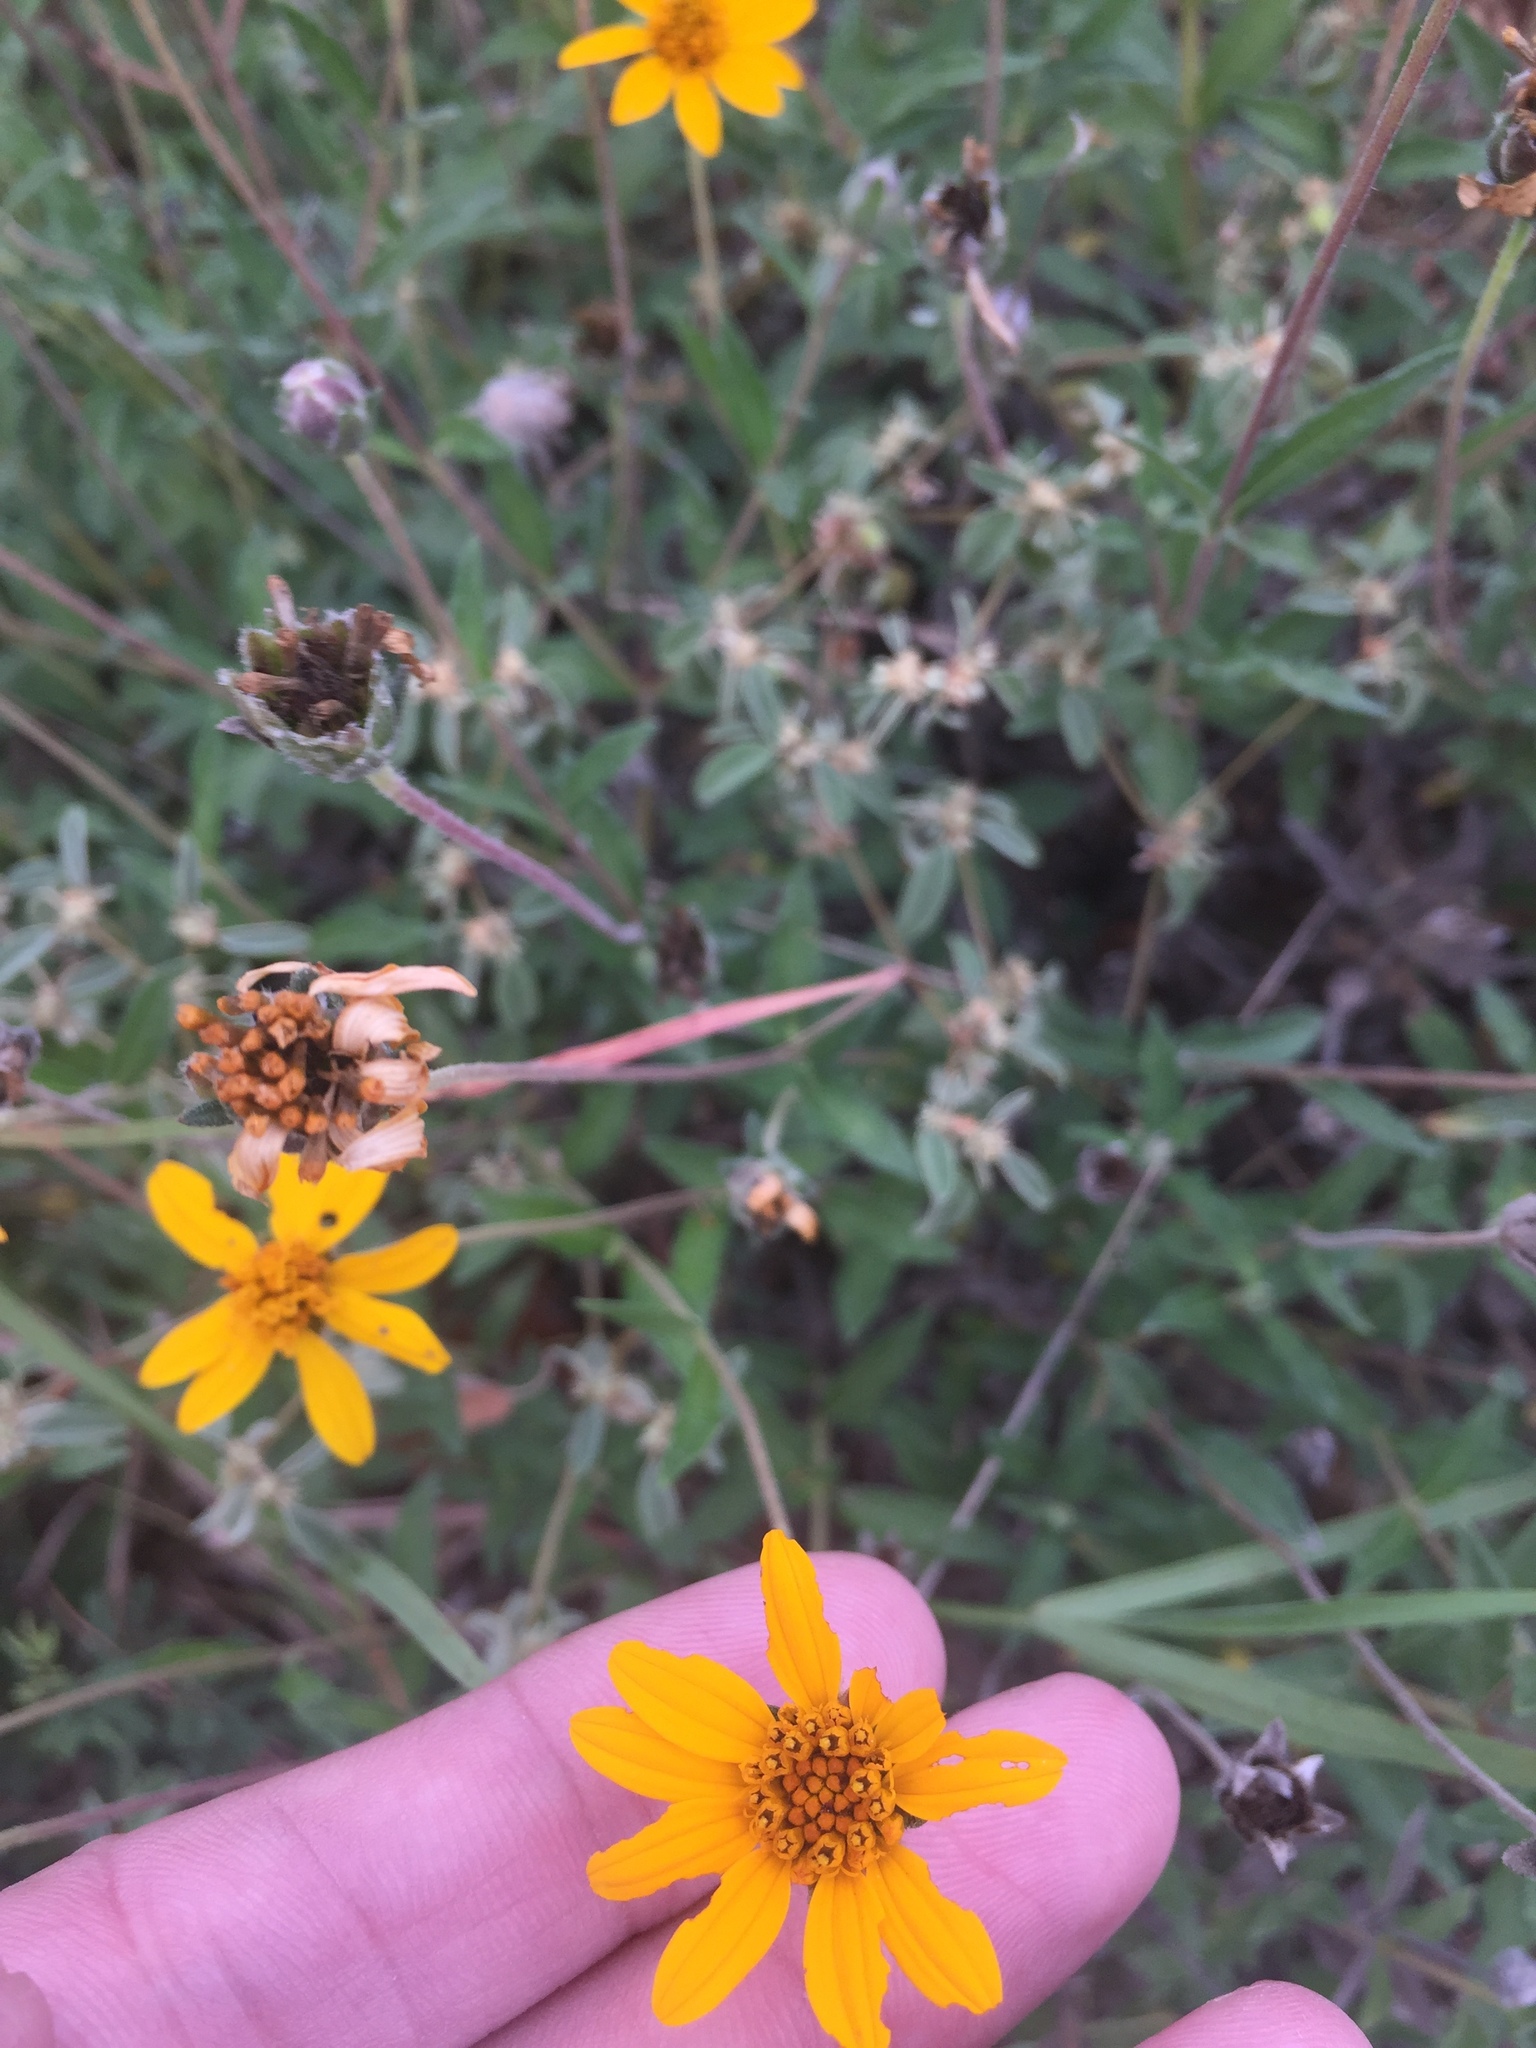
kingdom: Plantae
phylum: Tracheophyta
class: Magnoliopsida
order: Asterales
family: Asteraceae
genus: Wedelia
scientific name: Wedelia acapulcensis
